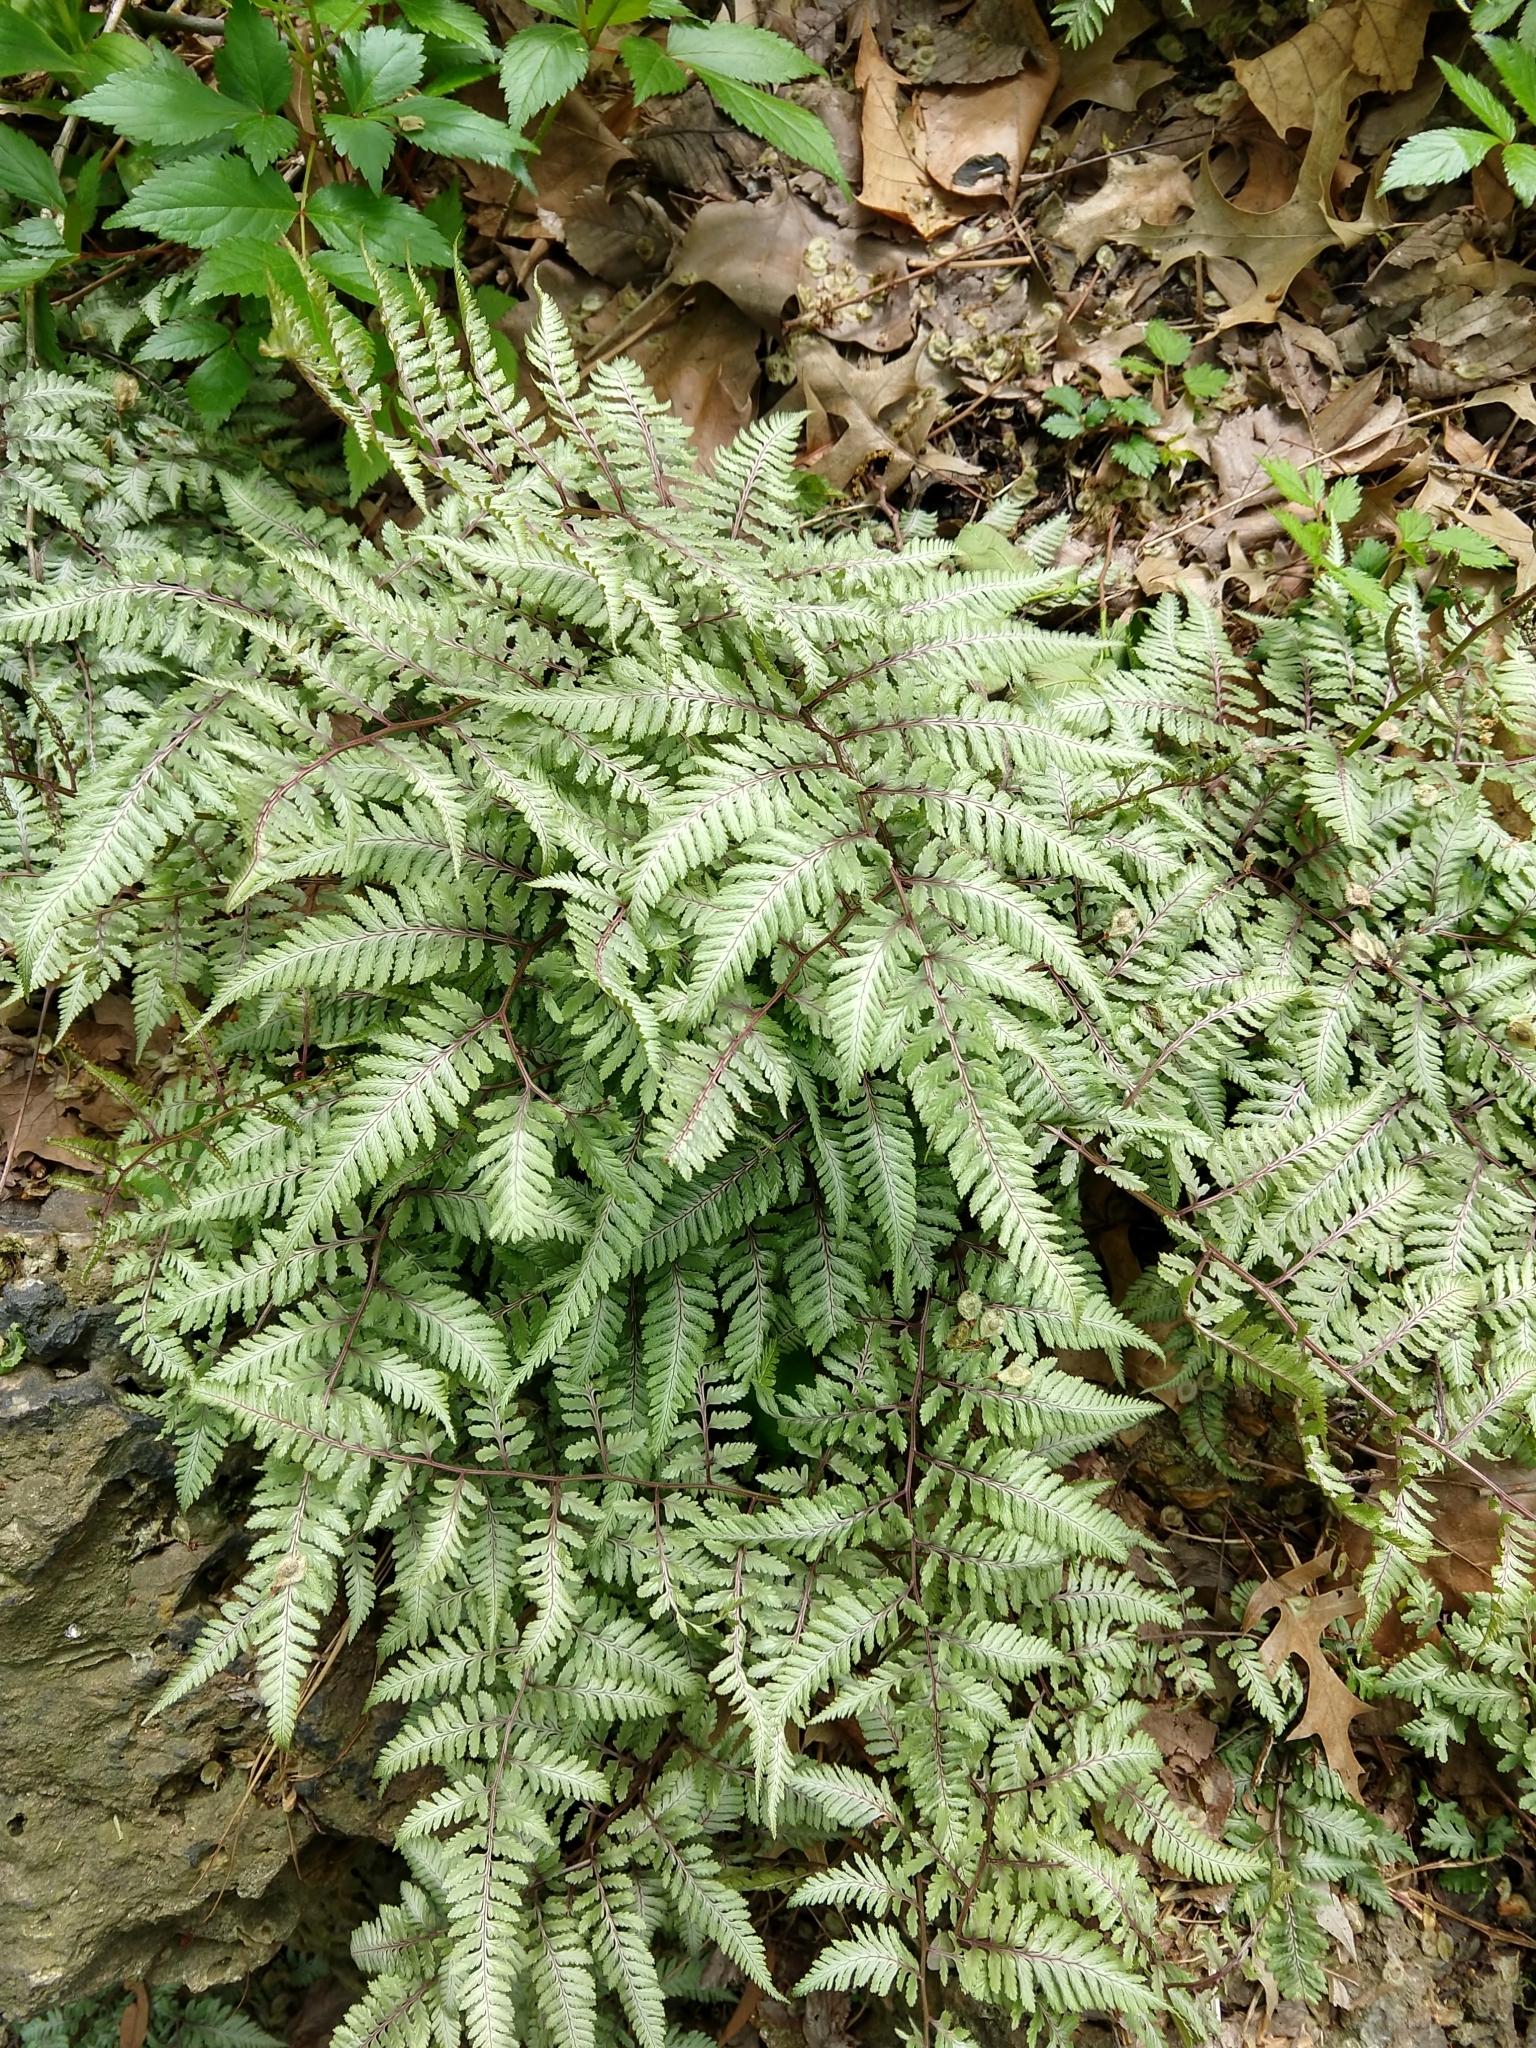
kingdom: Plantae
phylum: Tracheophyta
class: Polypodiopsida
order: Polypodiales
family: Athyriaceae
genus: Anisocampium
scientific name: Anisocampium niponicum
